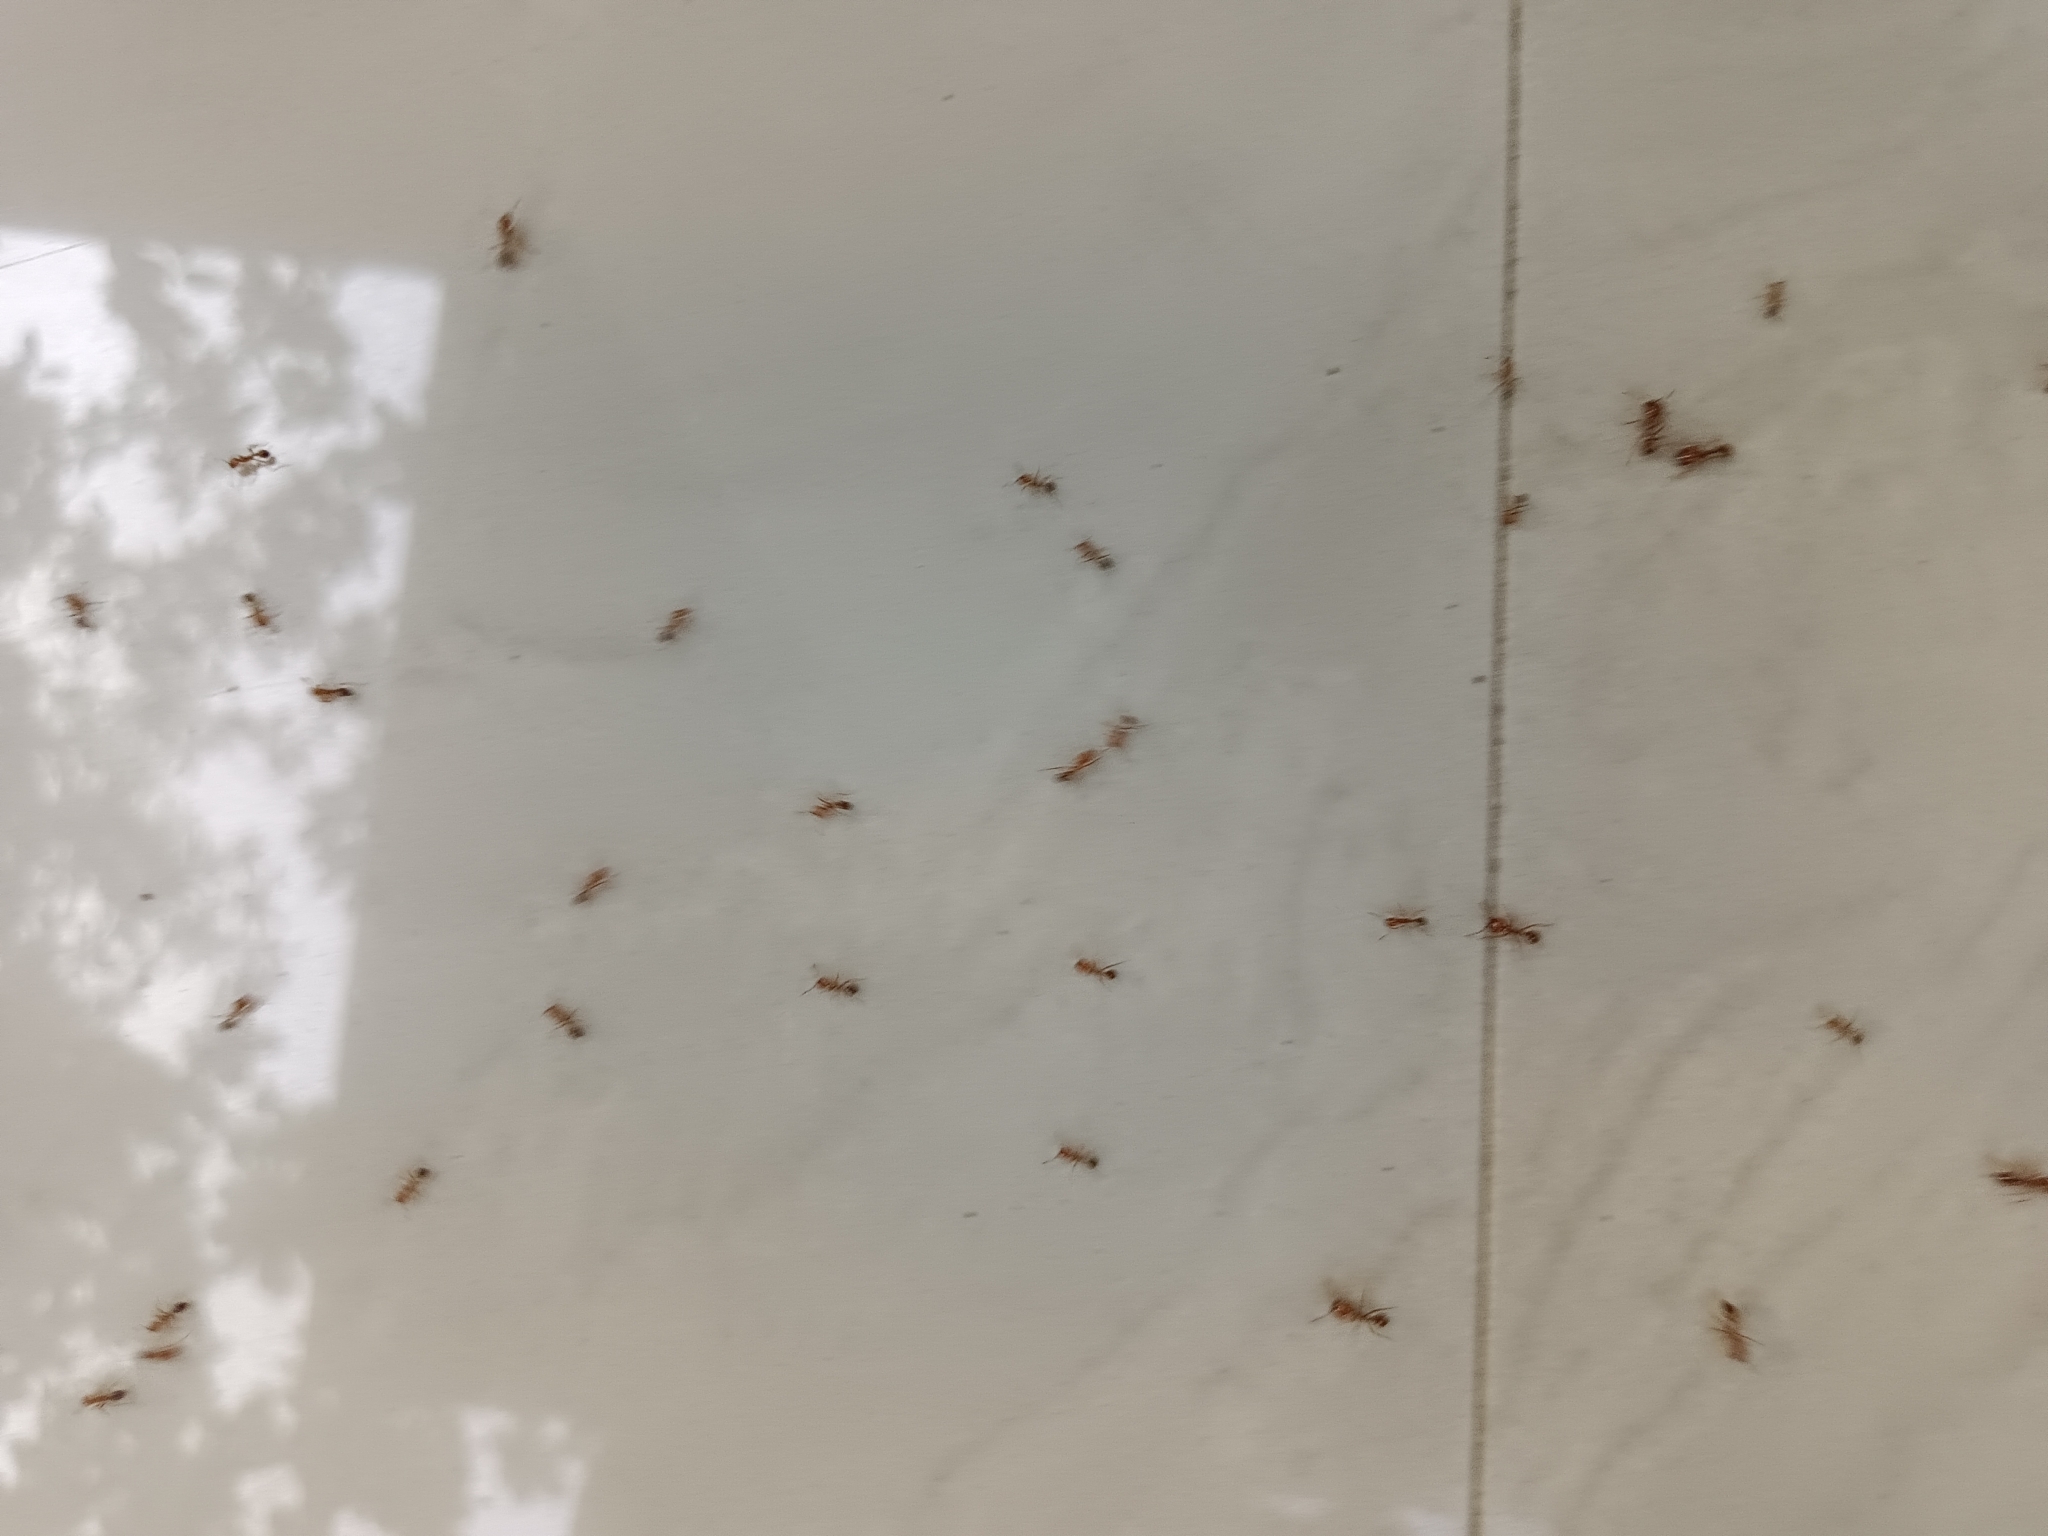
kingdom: Animalia
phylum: Arthropoda
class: Insecta
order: Hymenoptera
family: Formicidae
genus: Solenopsis
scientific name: Solenopsis geminata
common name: Tropical fire ant
